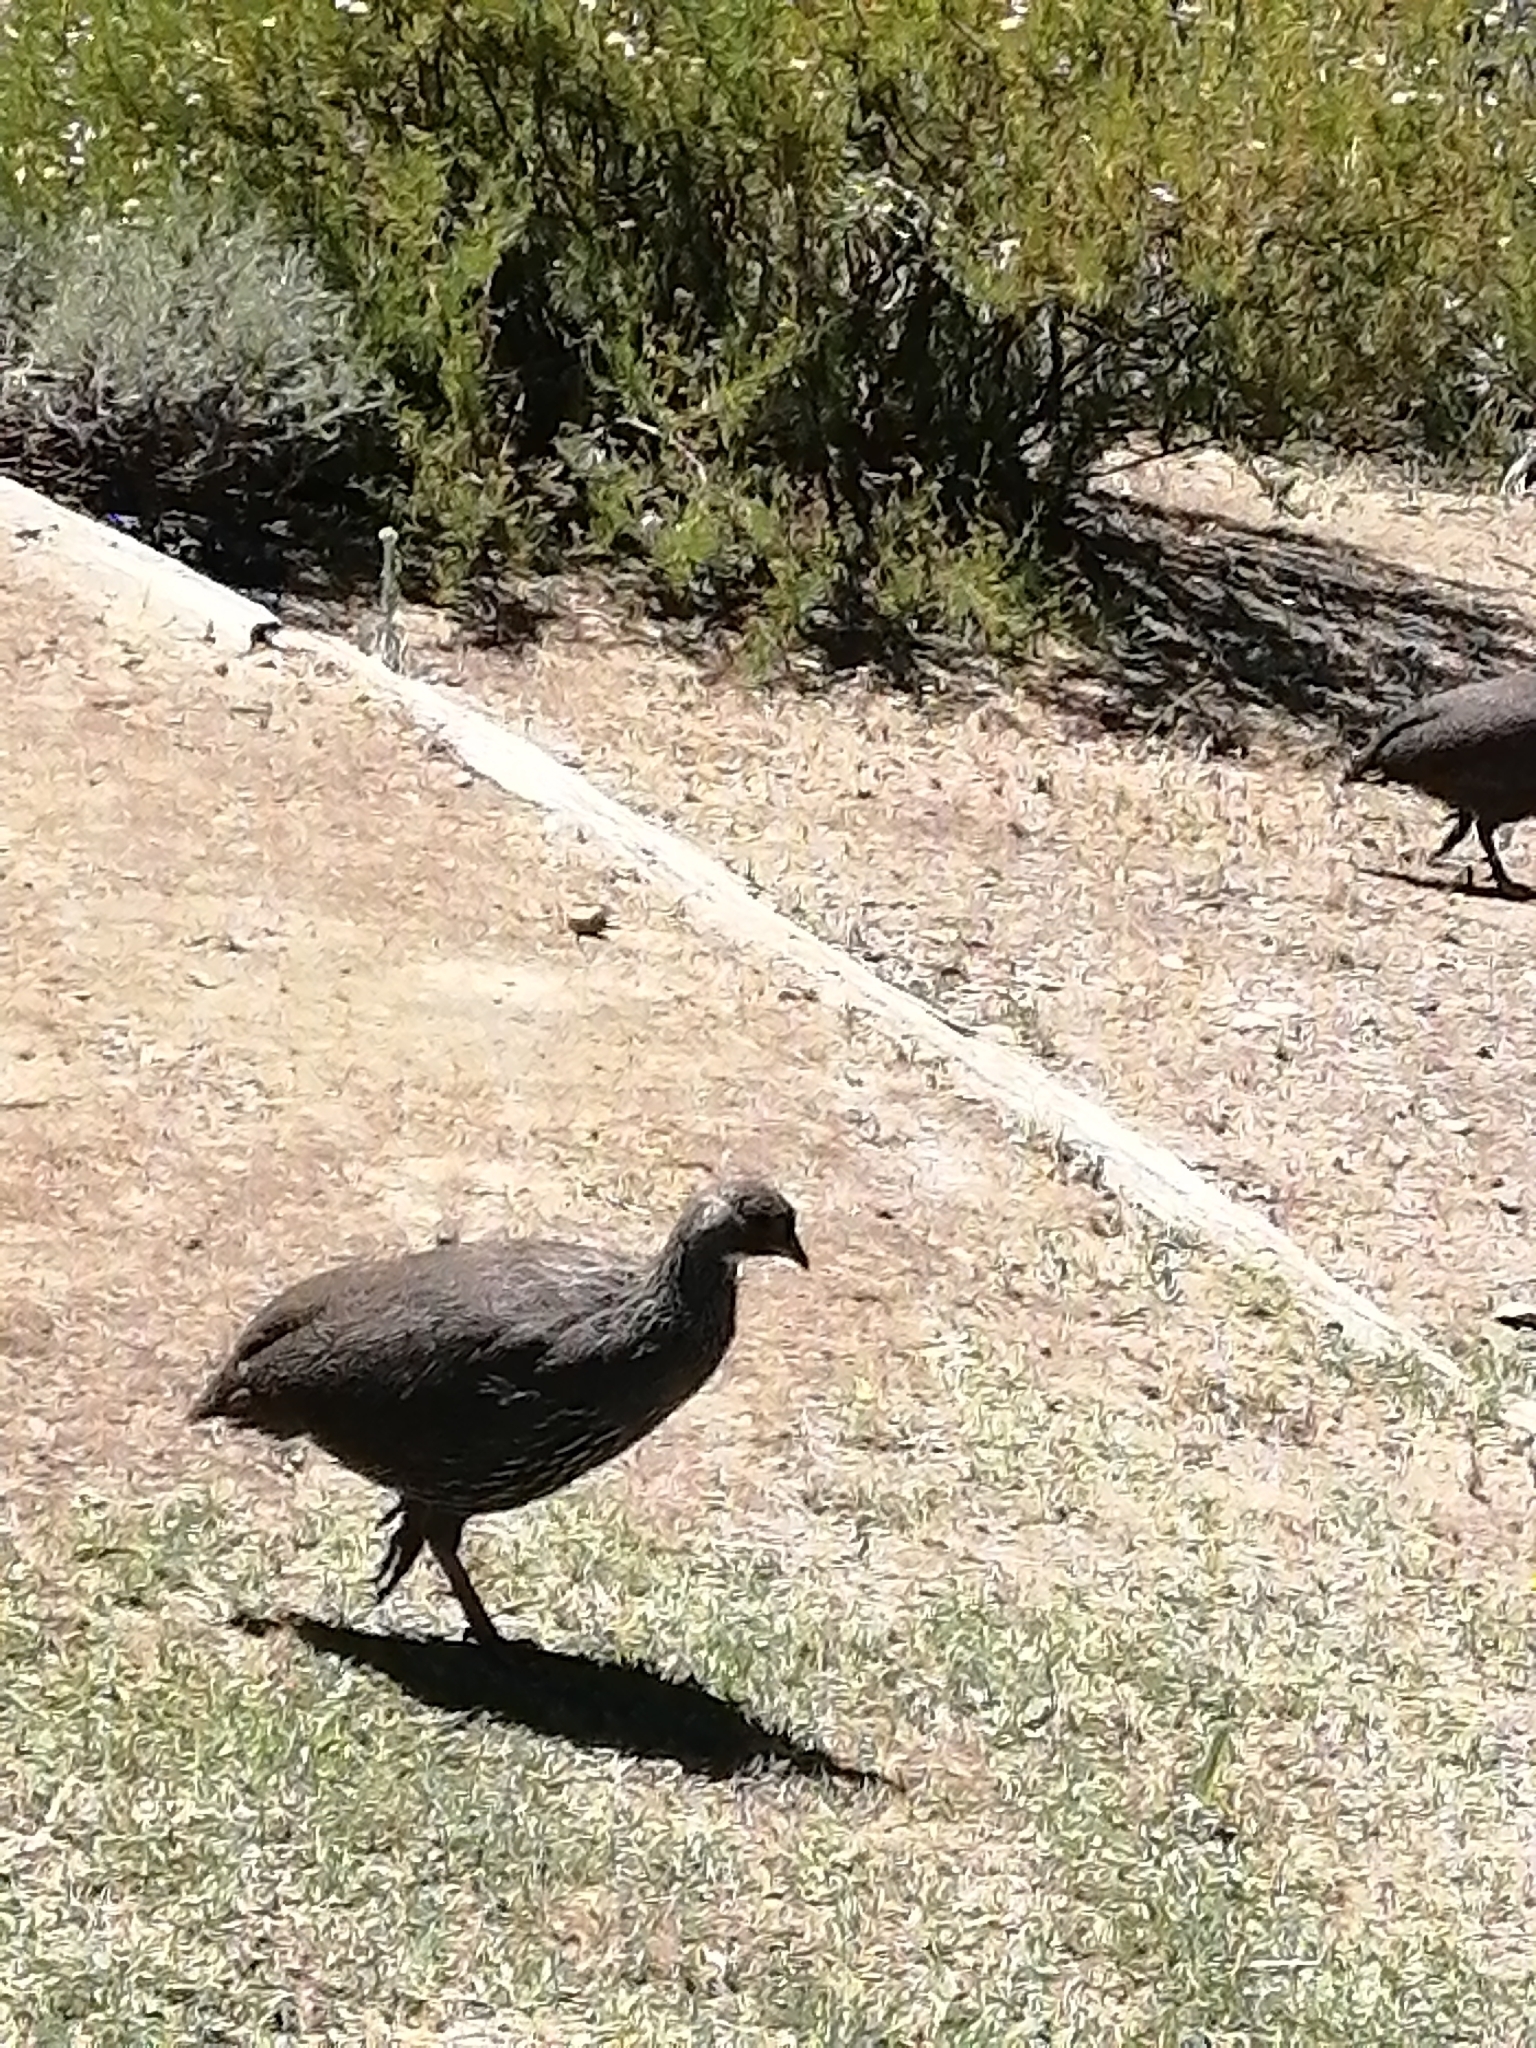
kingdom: Animalia
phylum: Chordata
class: Aves
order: Galliformes
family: Phasianidae
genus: Pternistis
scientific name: Pternistis capensis
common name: Cape spurfowl
